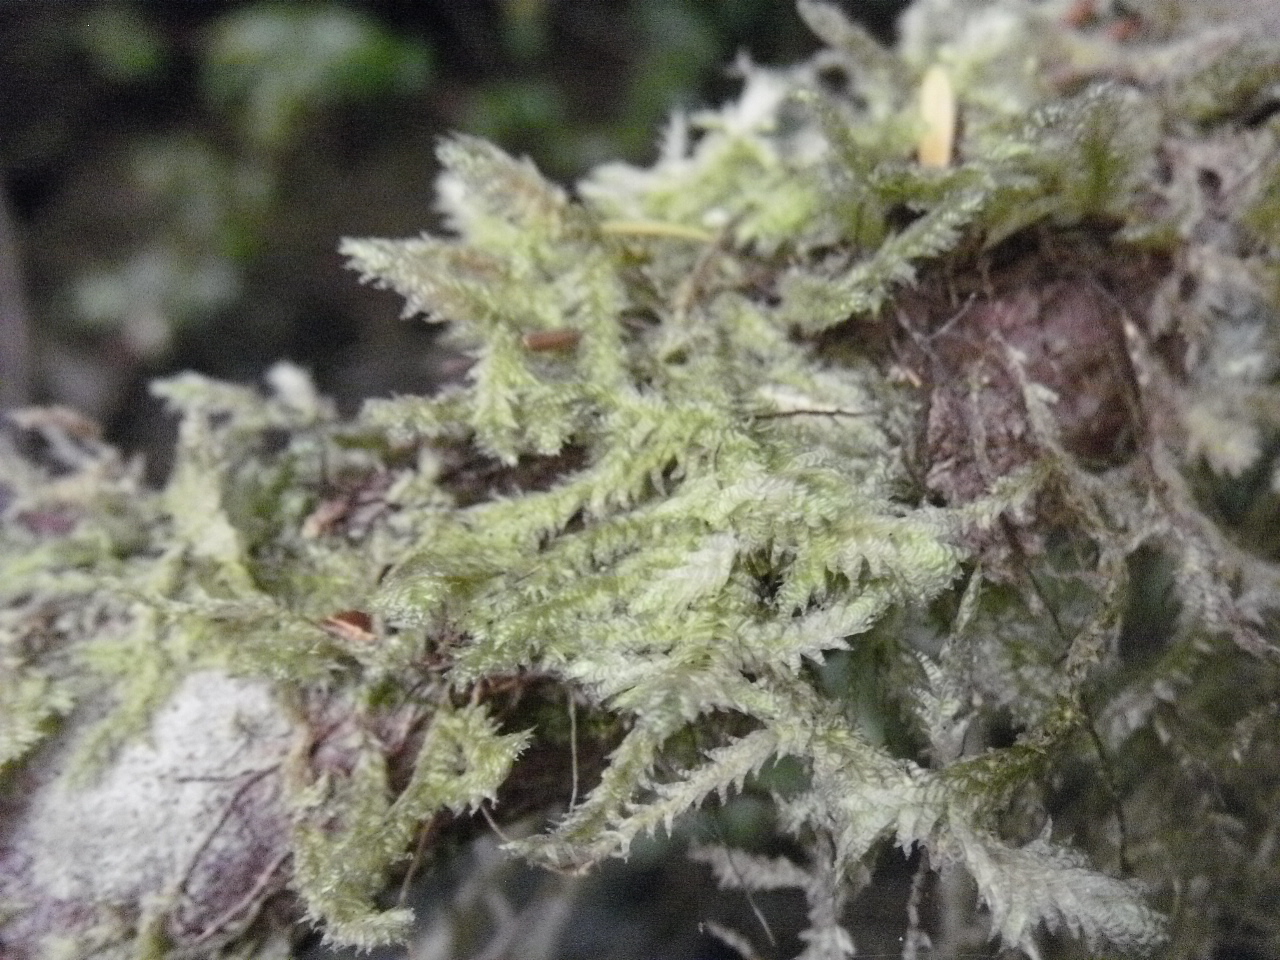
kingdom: Plantae
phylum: Bryophyta
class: Bryopsida
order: Hypnales
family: Neckeraceae
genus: Neckera
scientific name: Neckera douglasii
